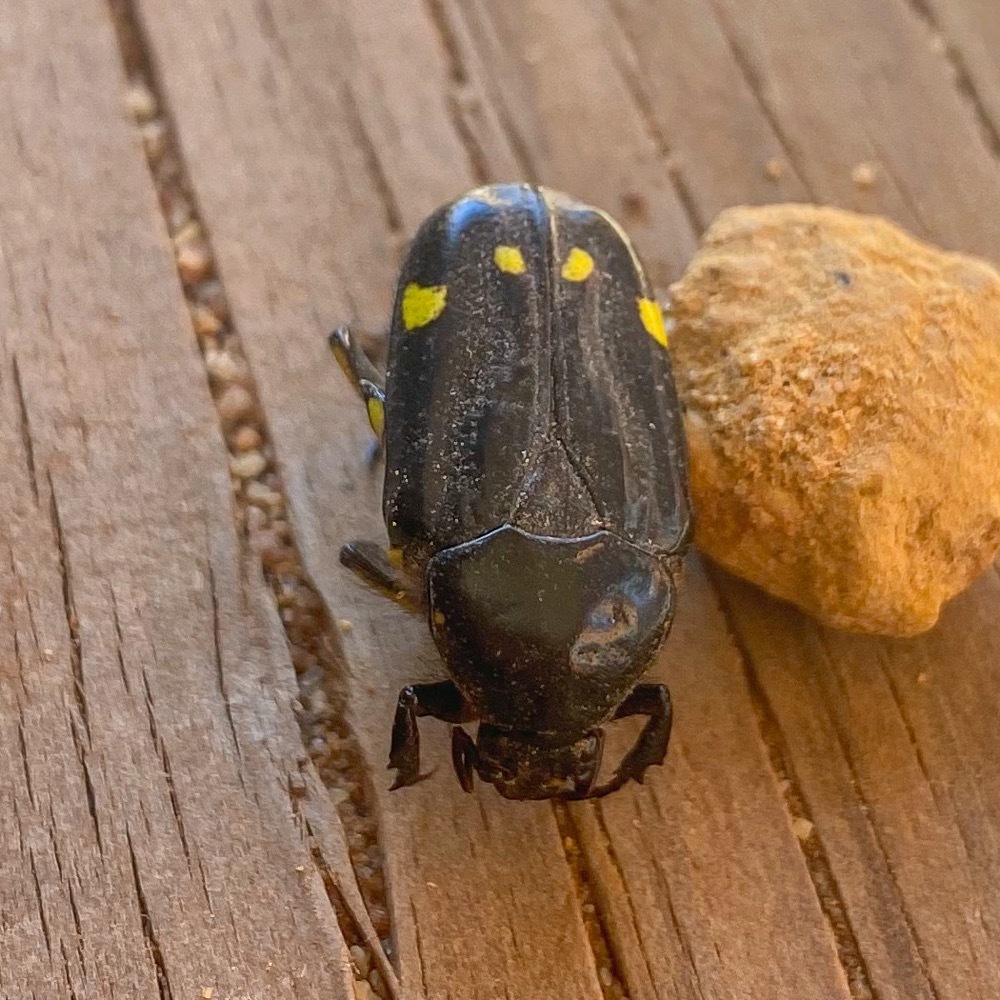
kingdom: Animalia
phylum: Arthropoda
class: Insecta
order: Coleoptera
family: Scarabaeidae
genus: Chlorobapta
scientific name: Chlorobapta goerlingi
